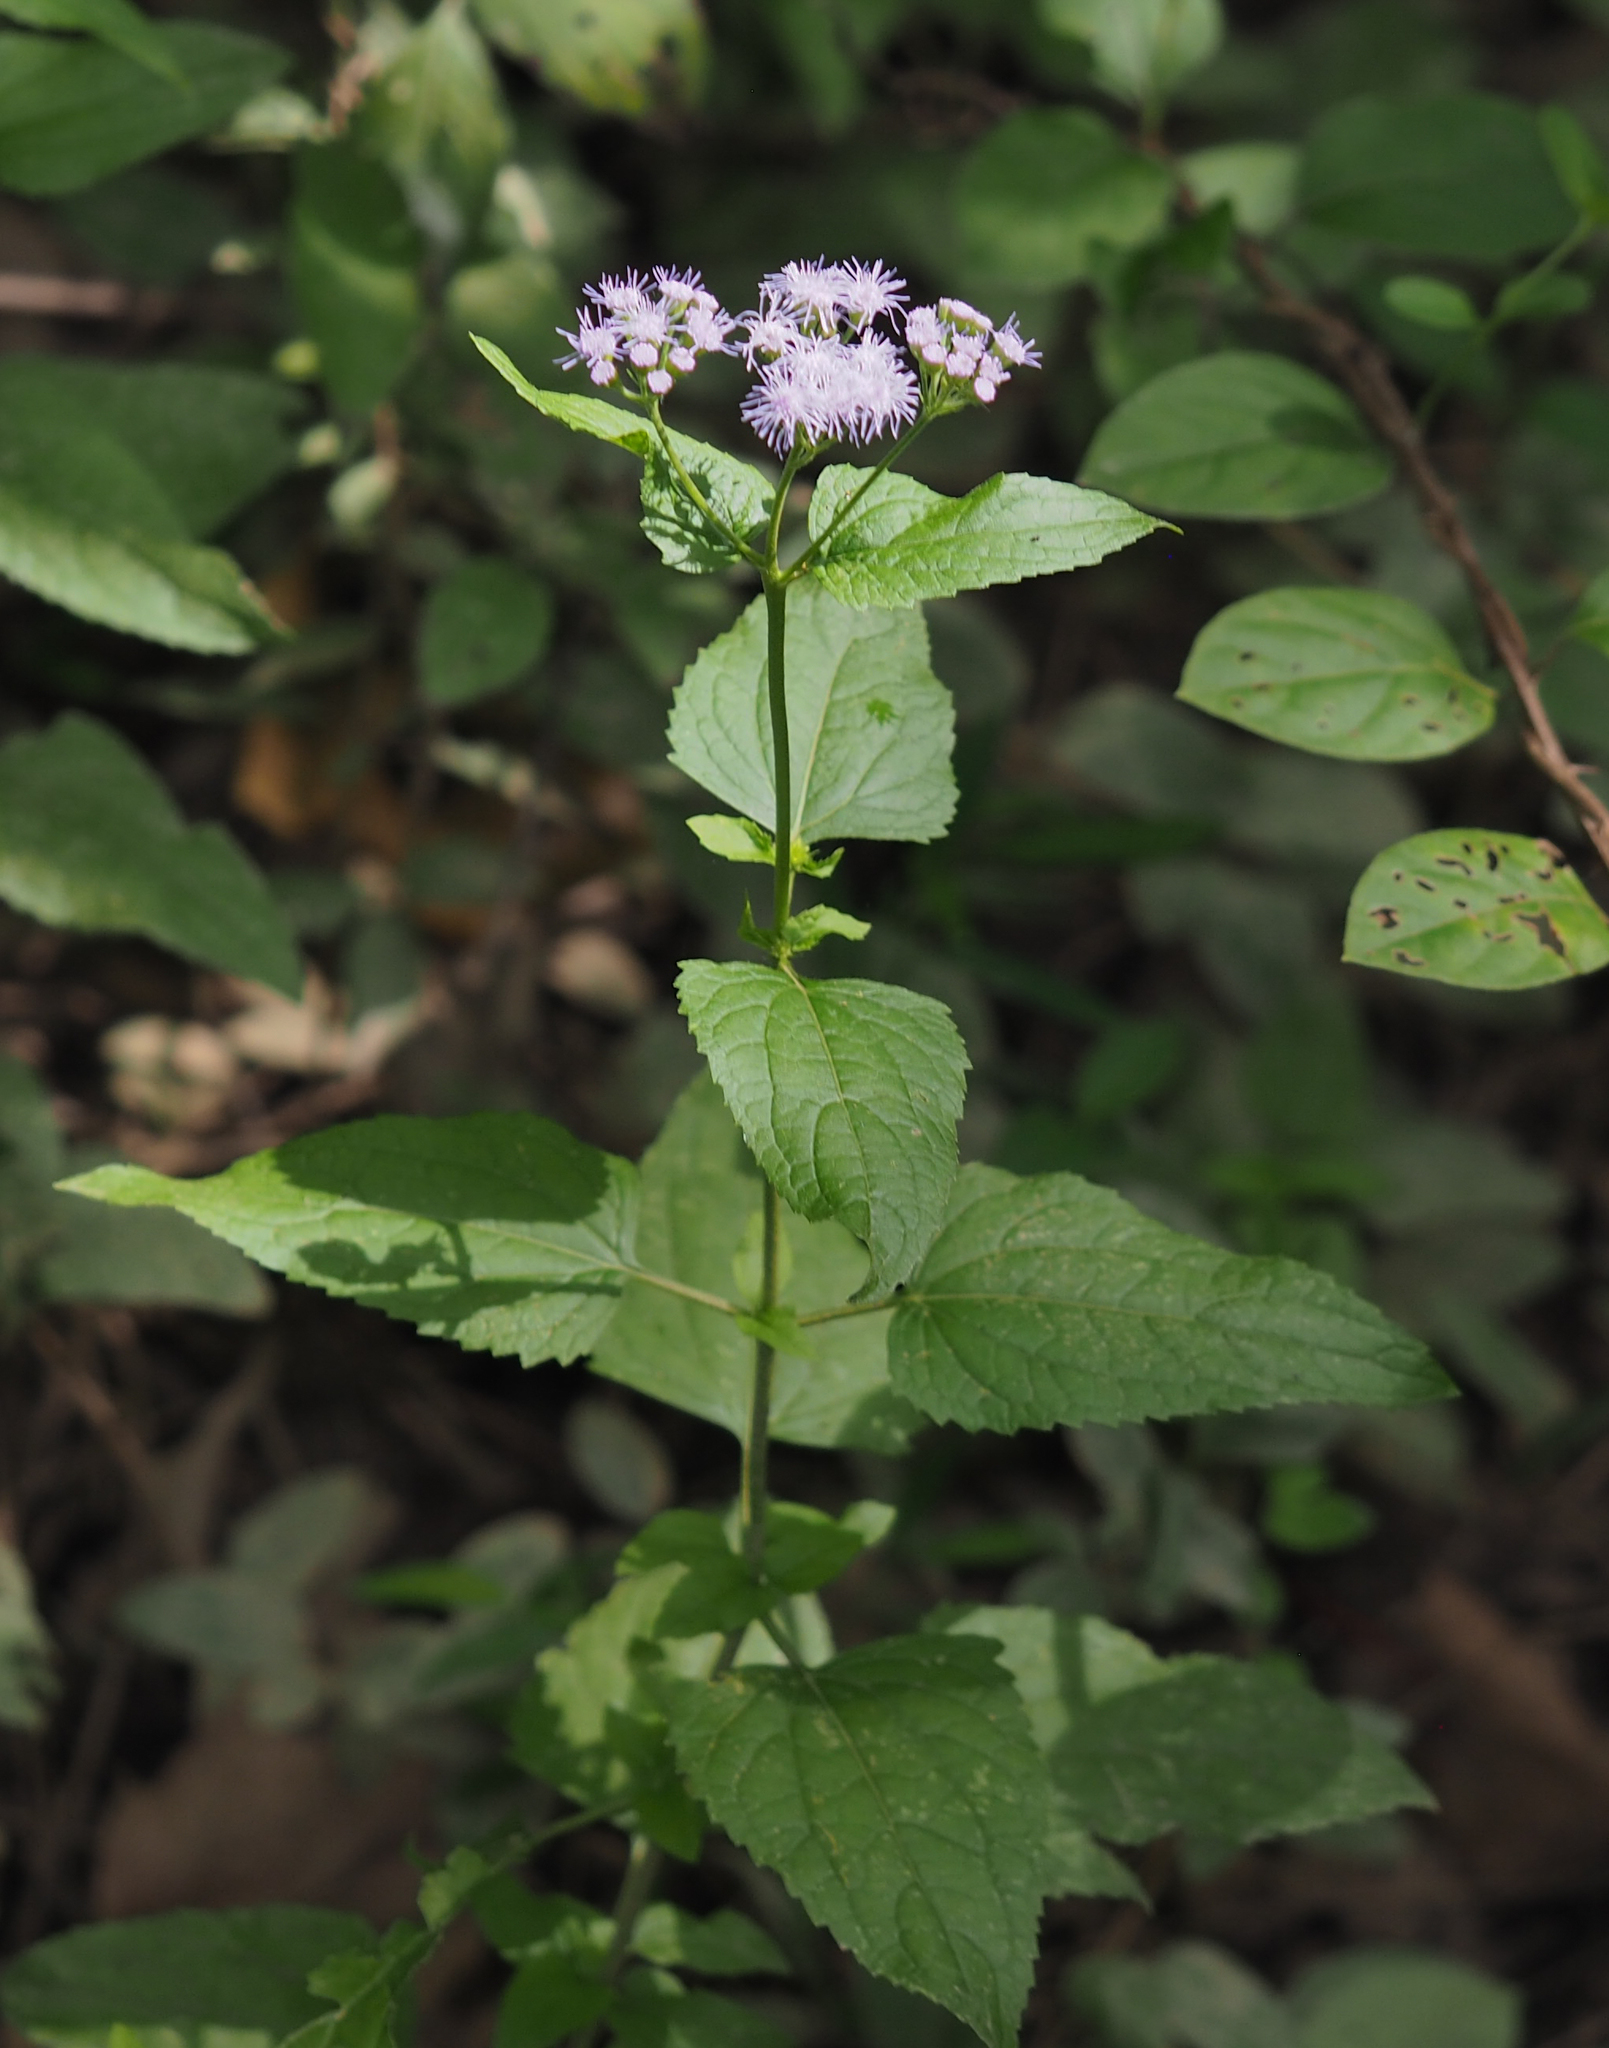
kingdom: Plantae
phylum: Tracheophyta
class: Magnoliopsida
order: Asterales
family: Asteraceae
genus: Conoclinium
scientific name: Conoclinium coelestinum
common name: Blue mistflower
